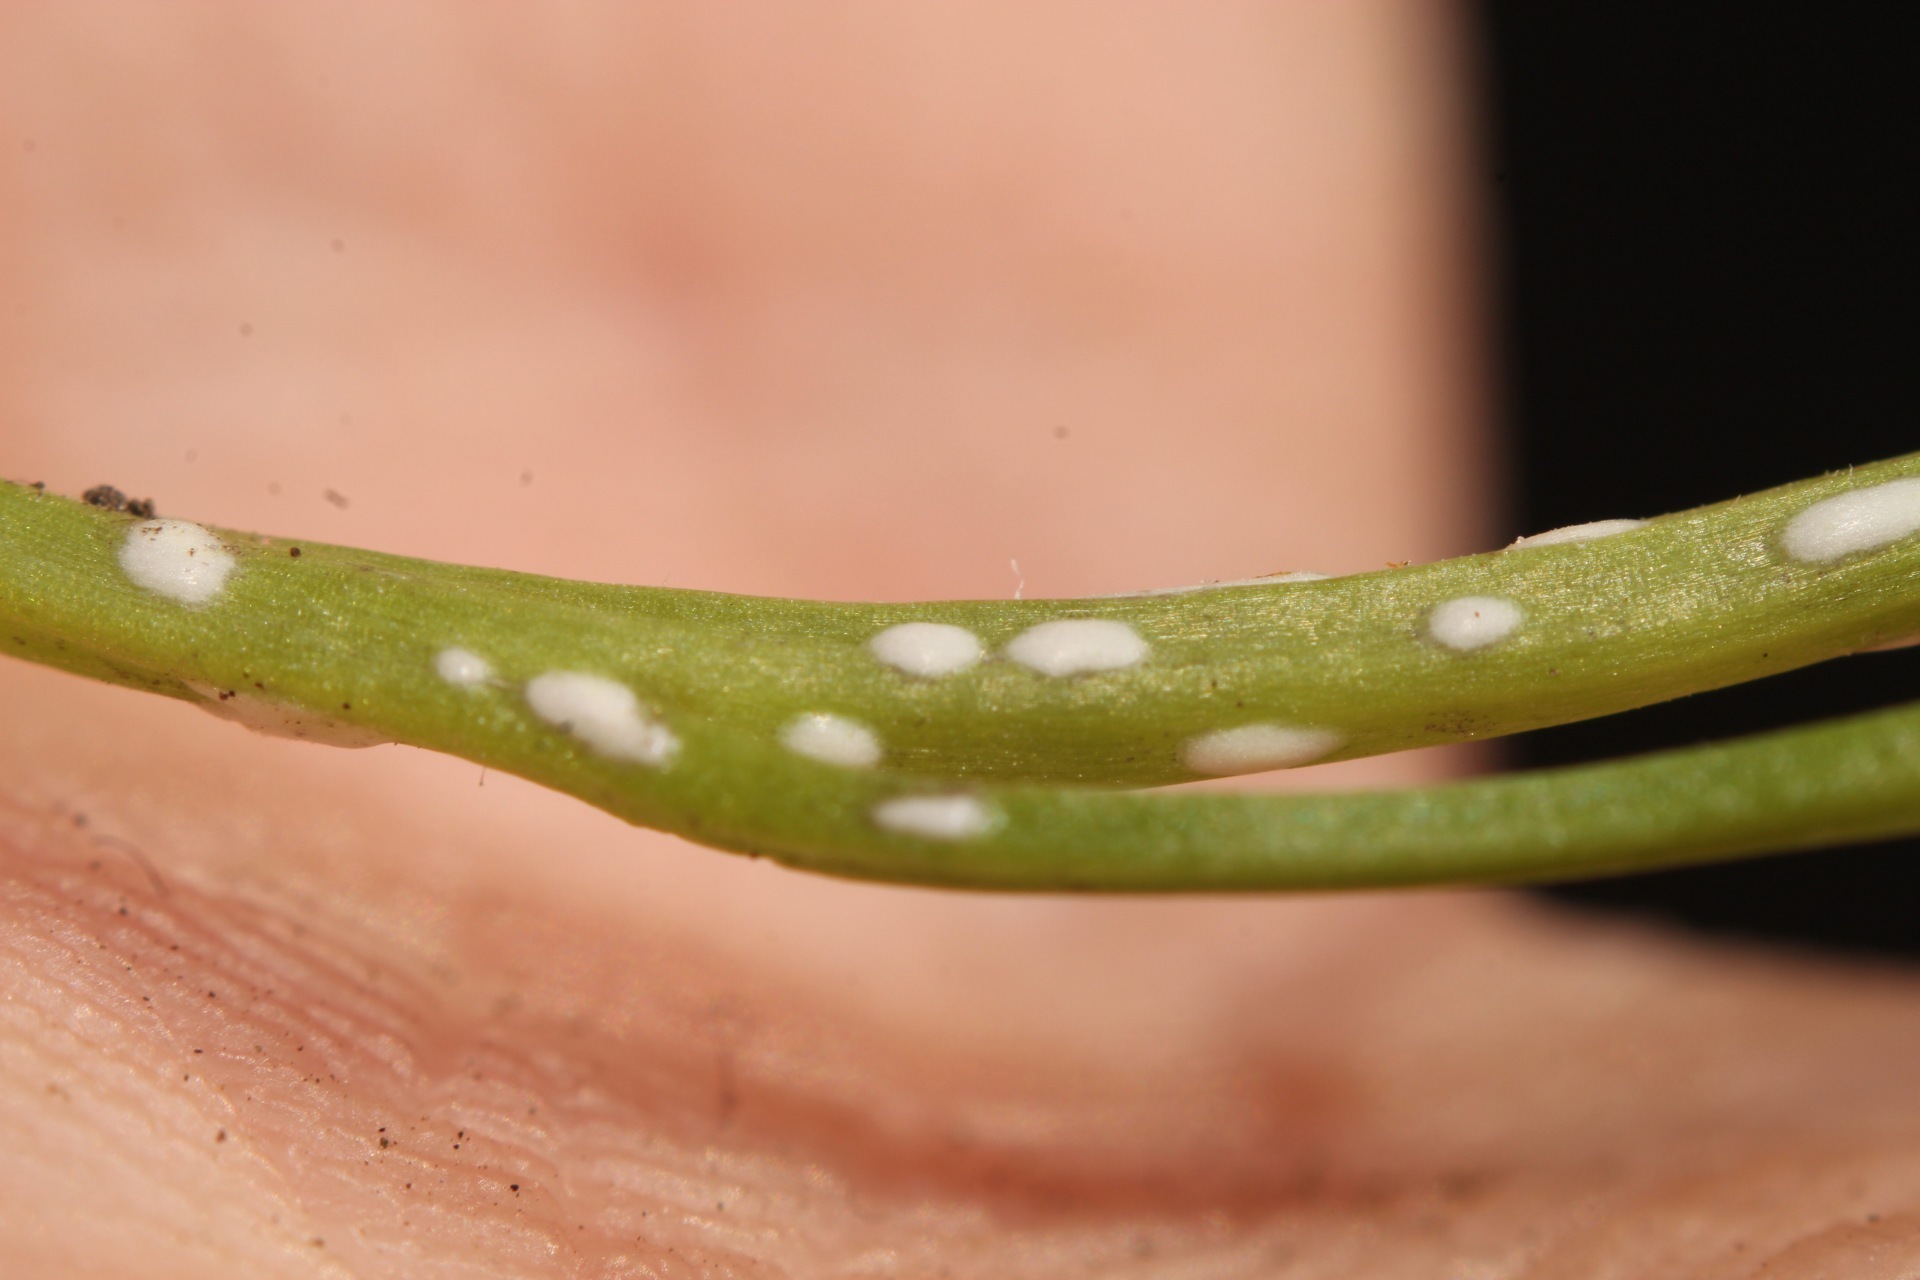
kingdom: Chromista
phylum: Oomycota
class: Peronosporea
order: Albuginales
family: Albuginaceae
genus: Albugo
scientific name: Albugo candida
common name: Crucifer white blister
